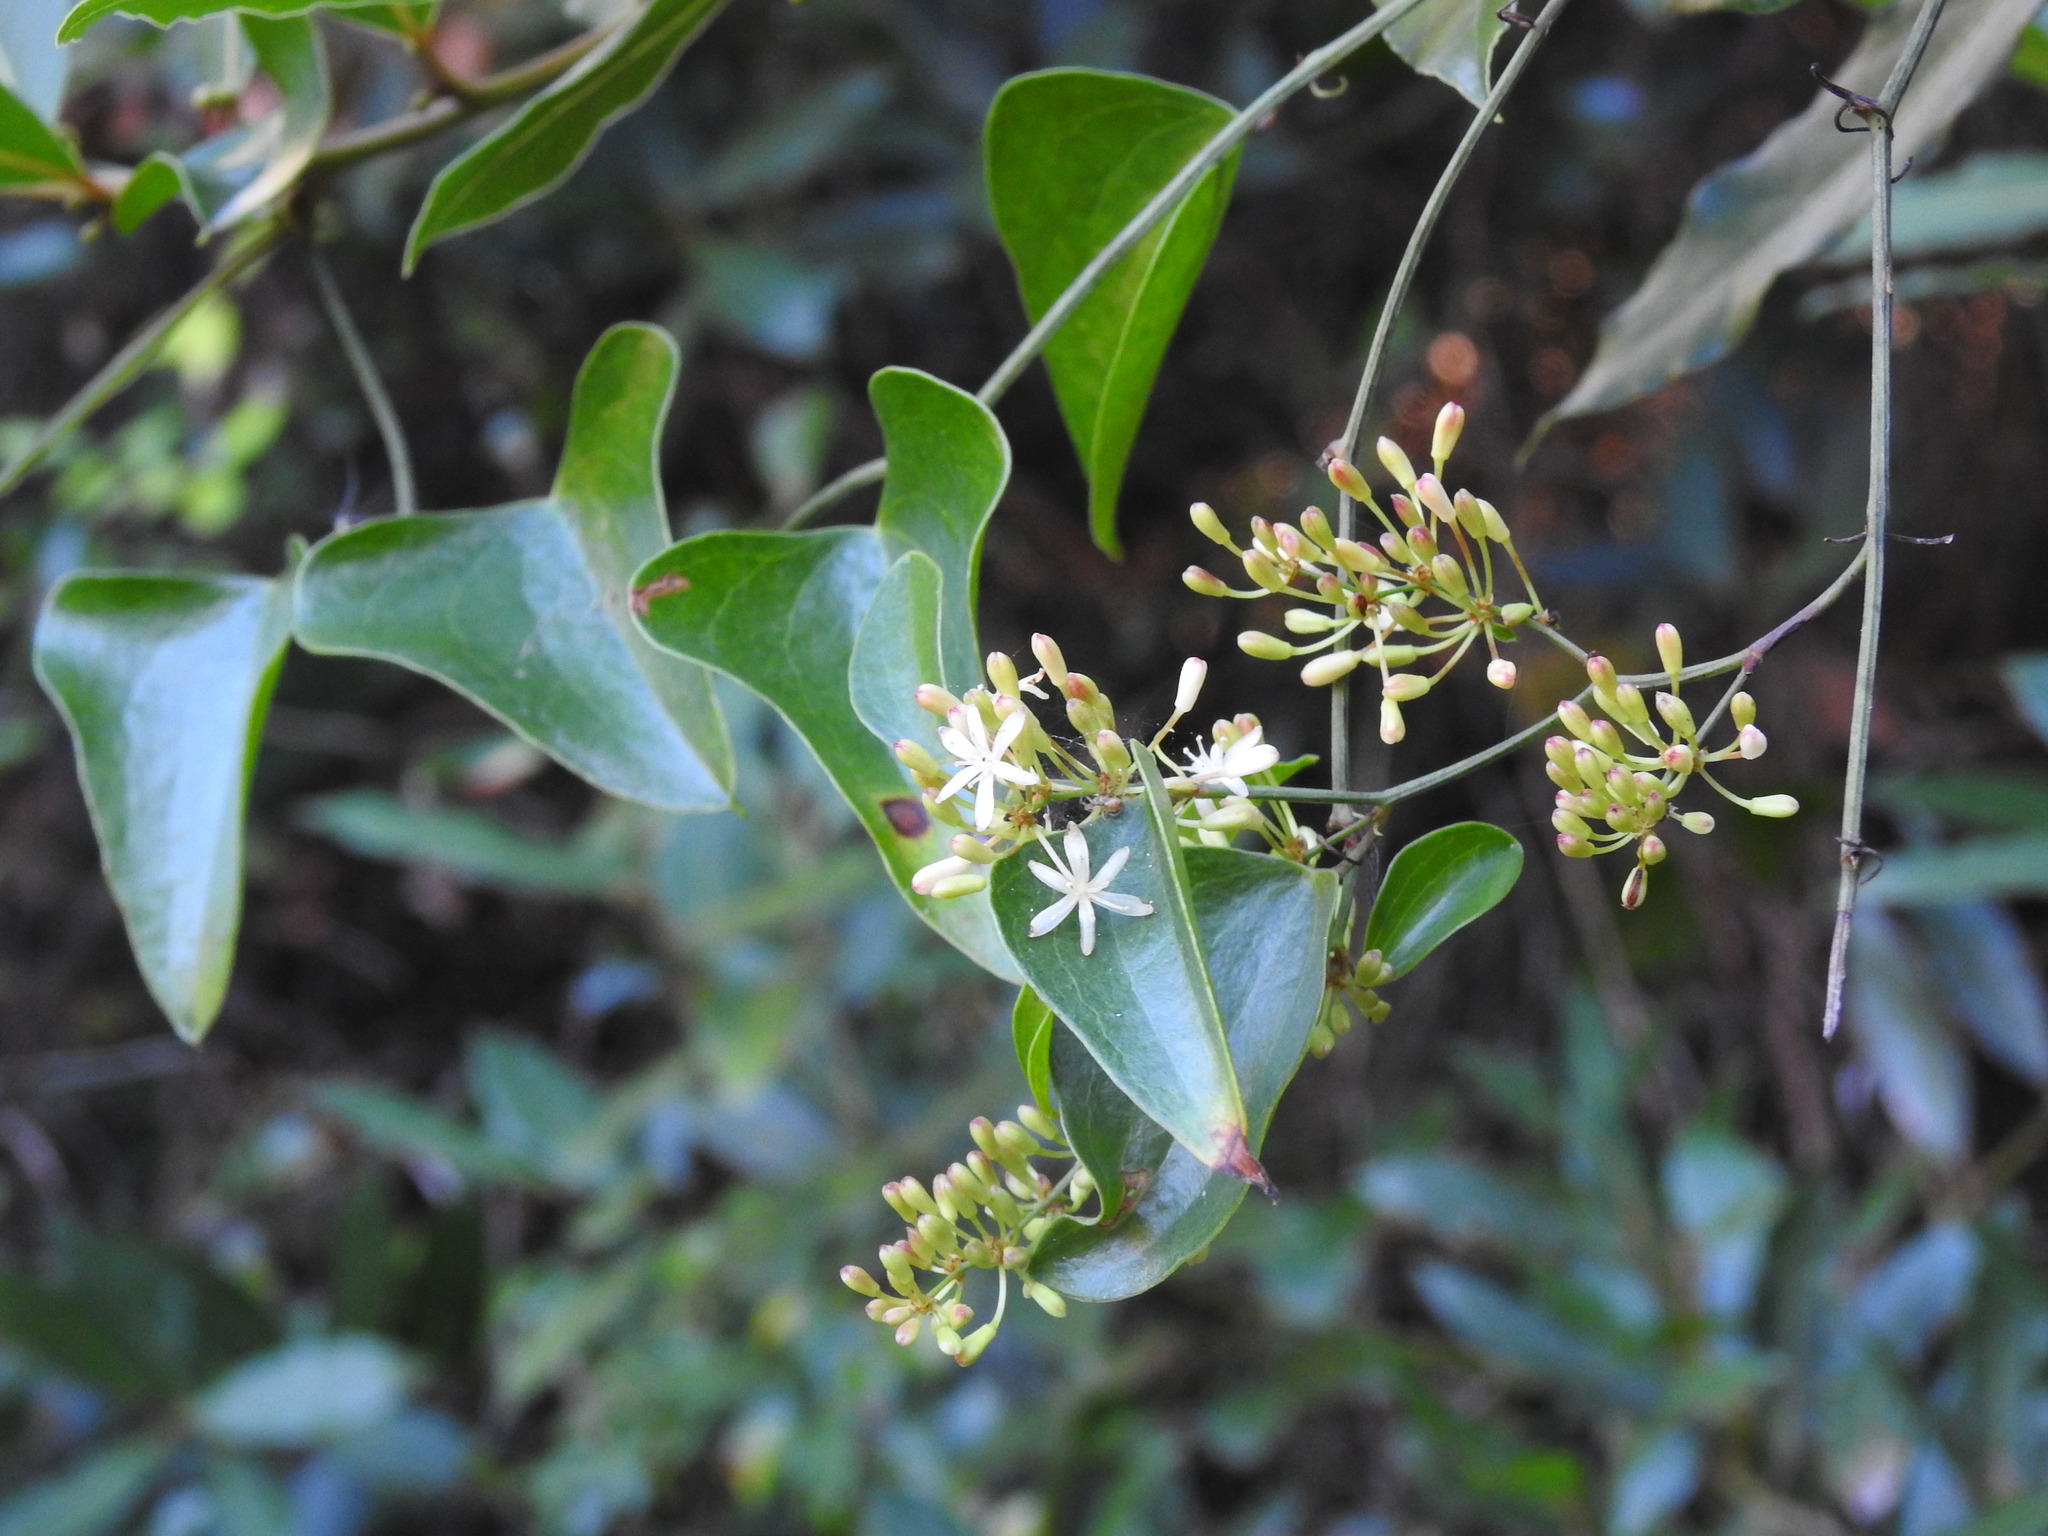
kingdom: Plantae
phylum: Tracheophyta
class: Liliopsida
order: Liliales
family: Smilacaceae
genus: Smilax
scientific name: Smilax aspera
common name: Common smilax
